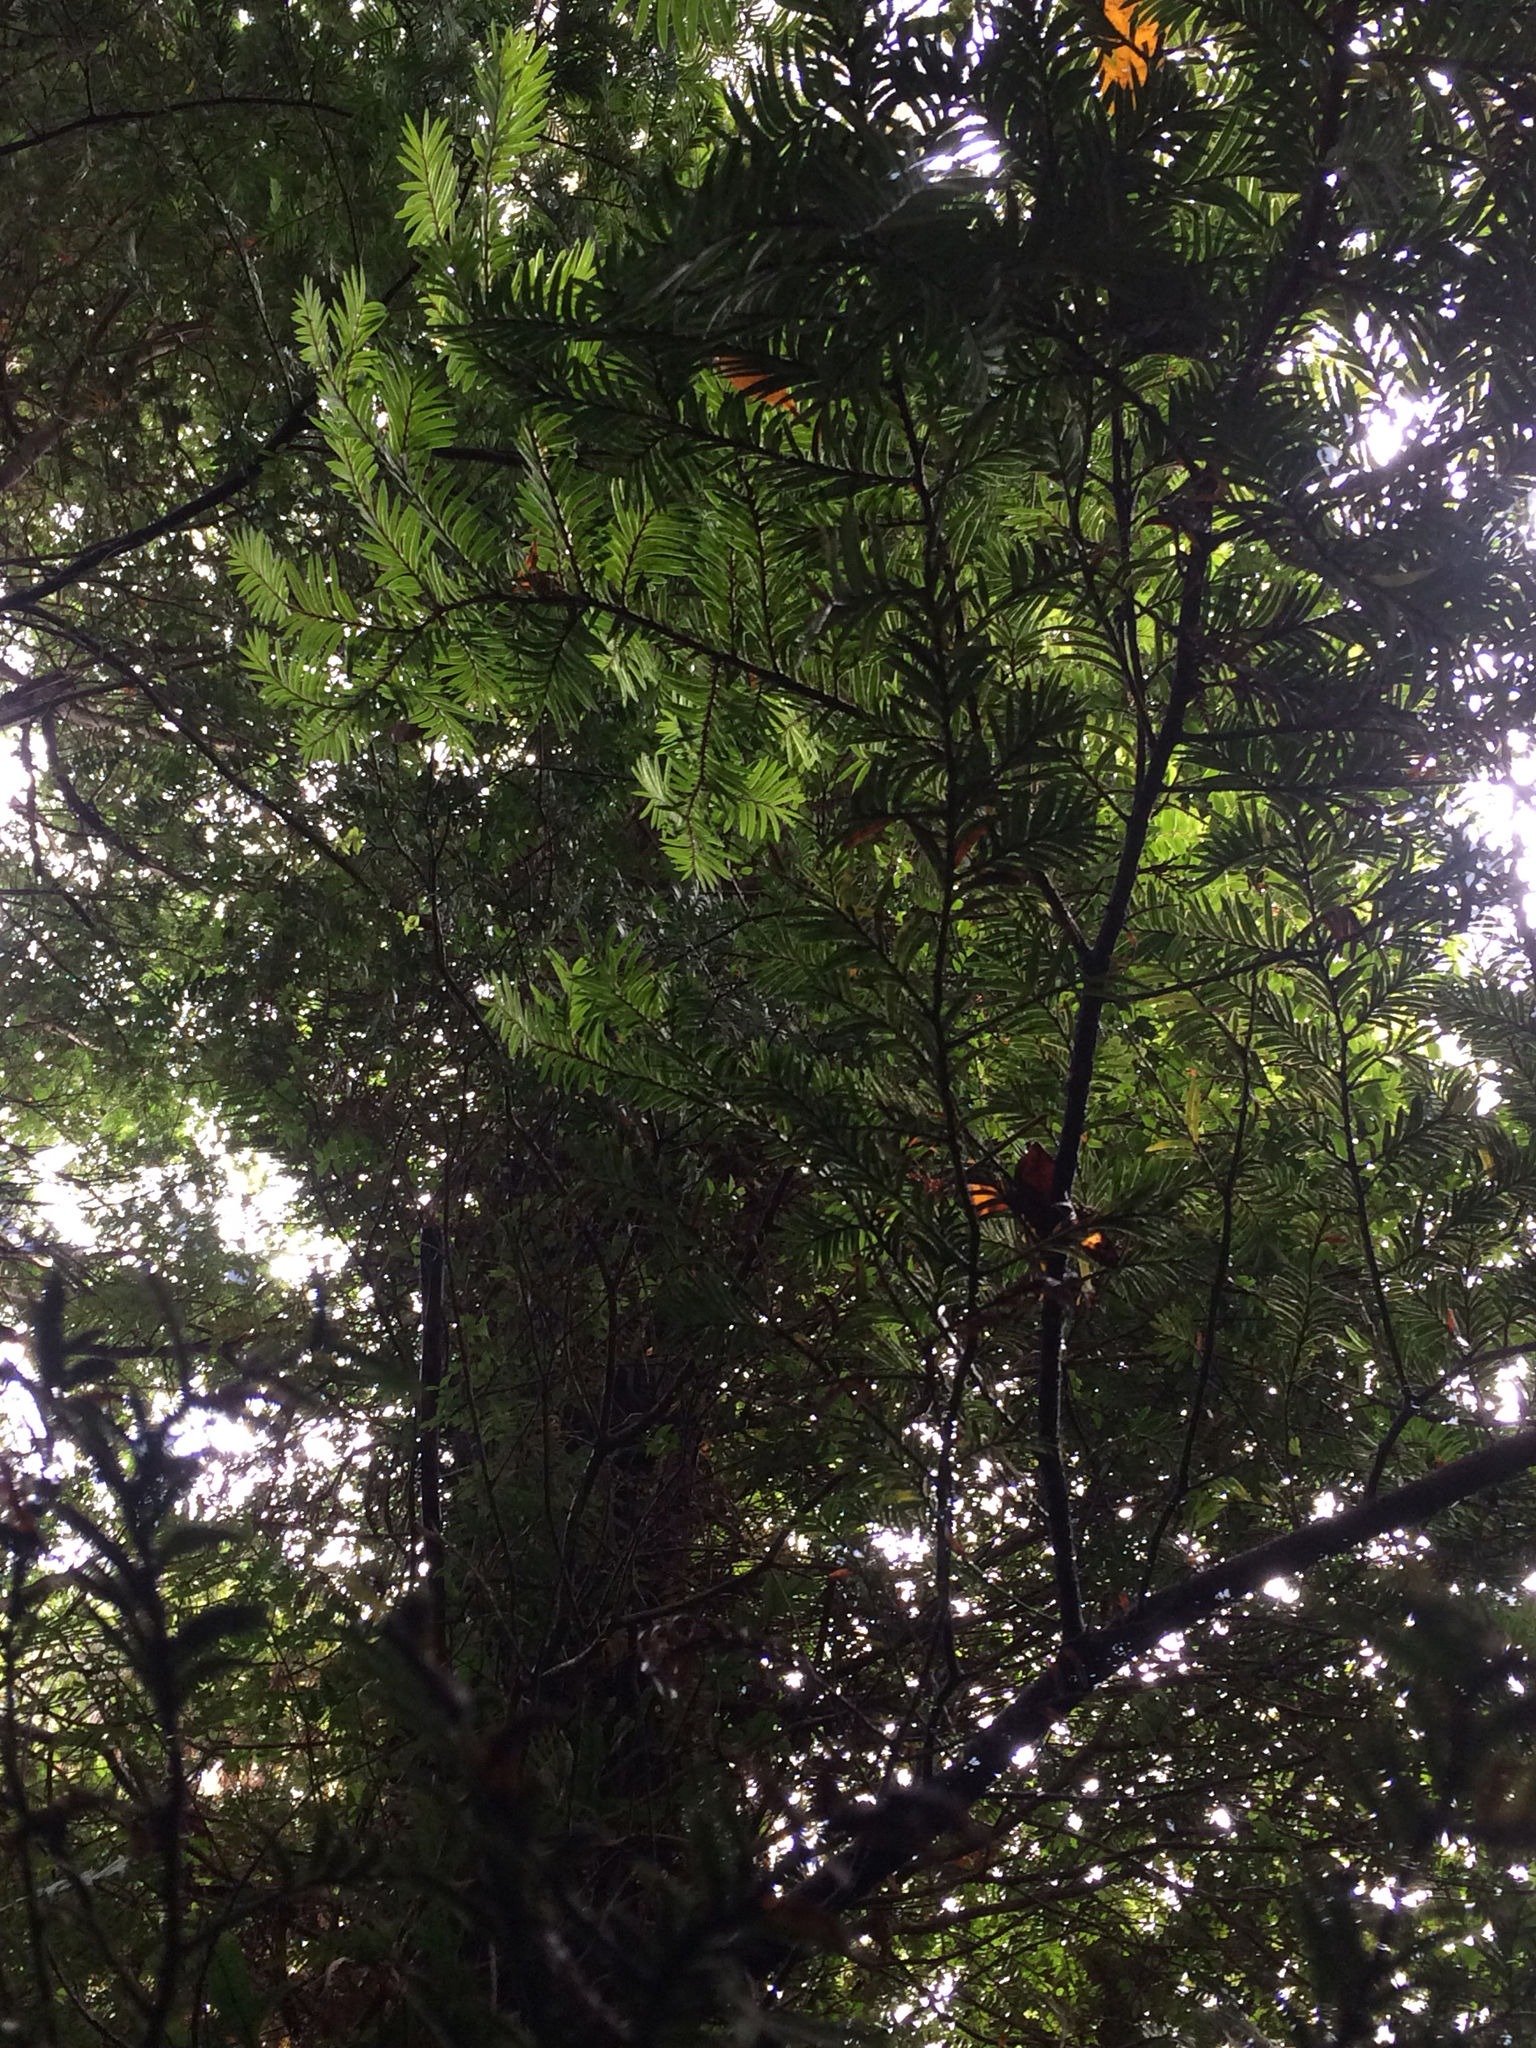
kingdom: Plantae
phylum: Tracheophyta
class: Pinopsida
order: Pinales
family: Podocarpaceae
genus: Prumnopitys
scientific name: Prumnopitys ferruginea
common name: Brown pine
